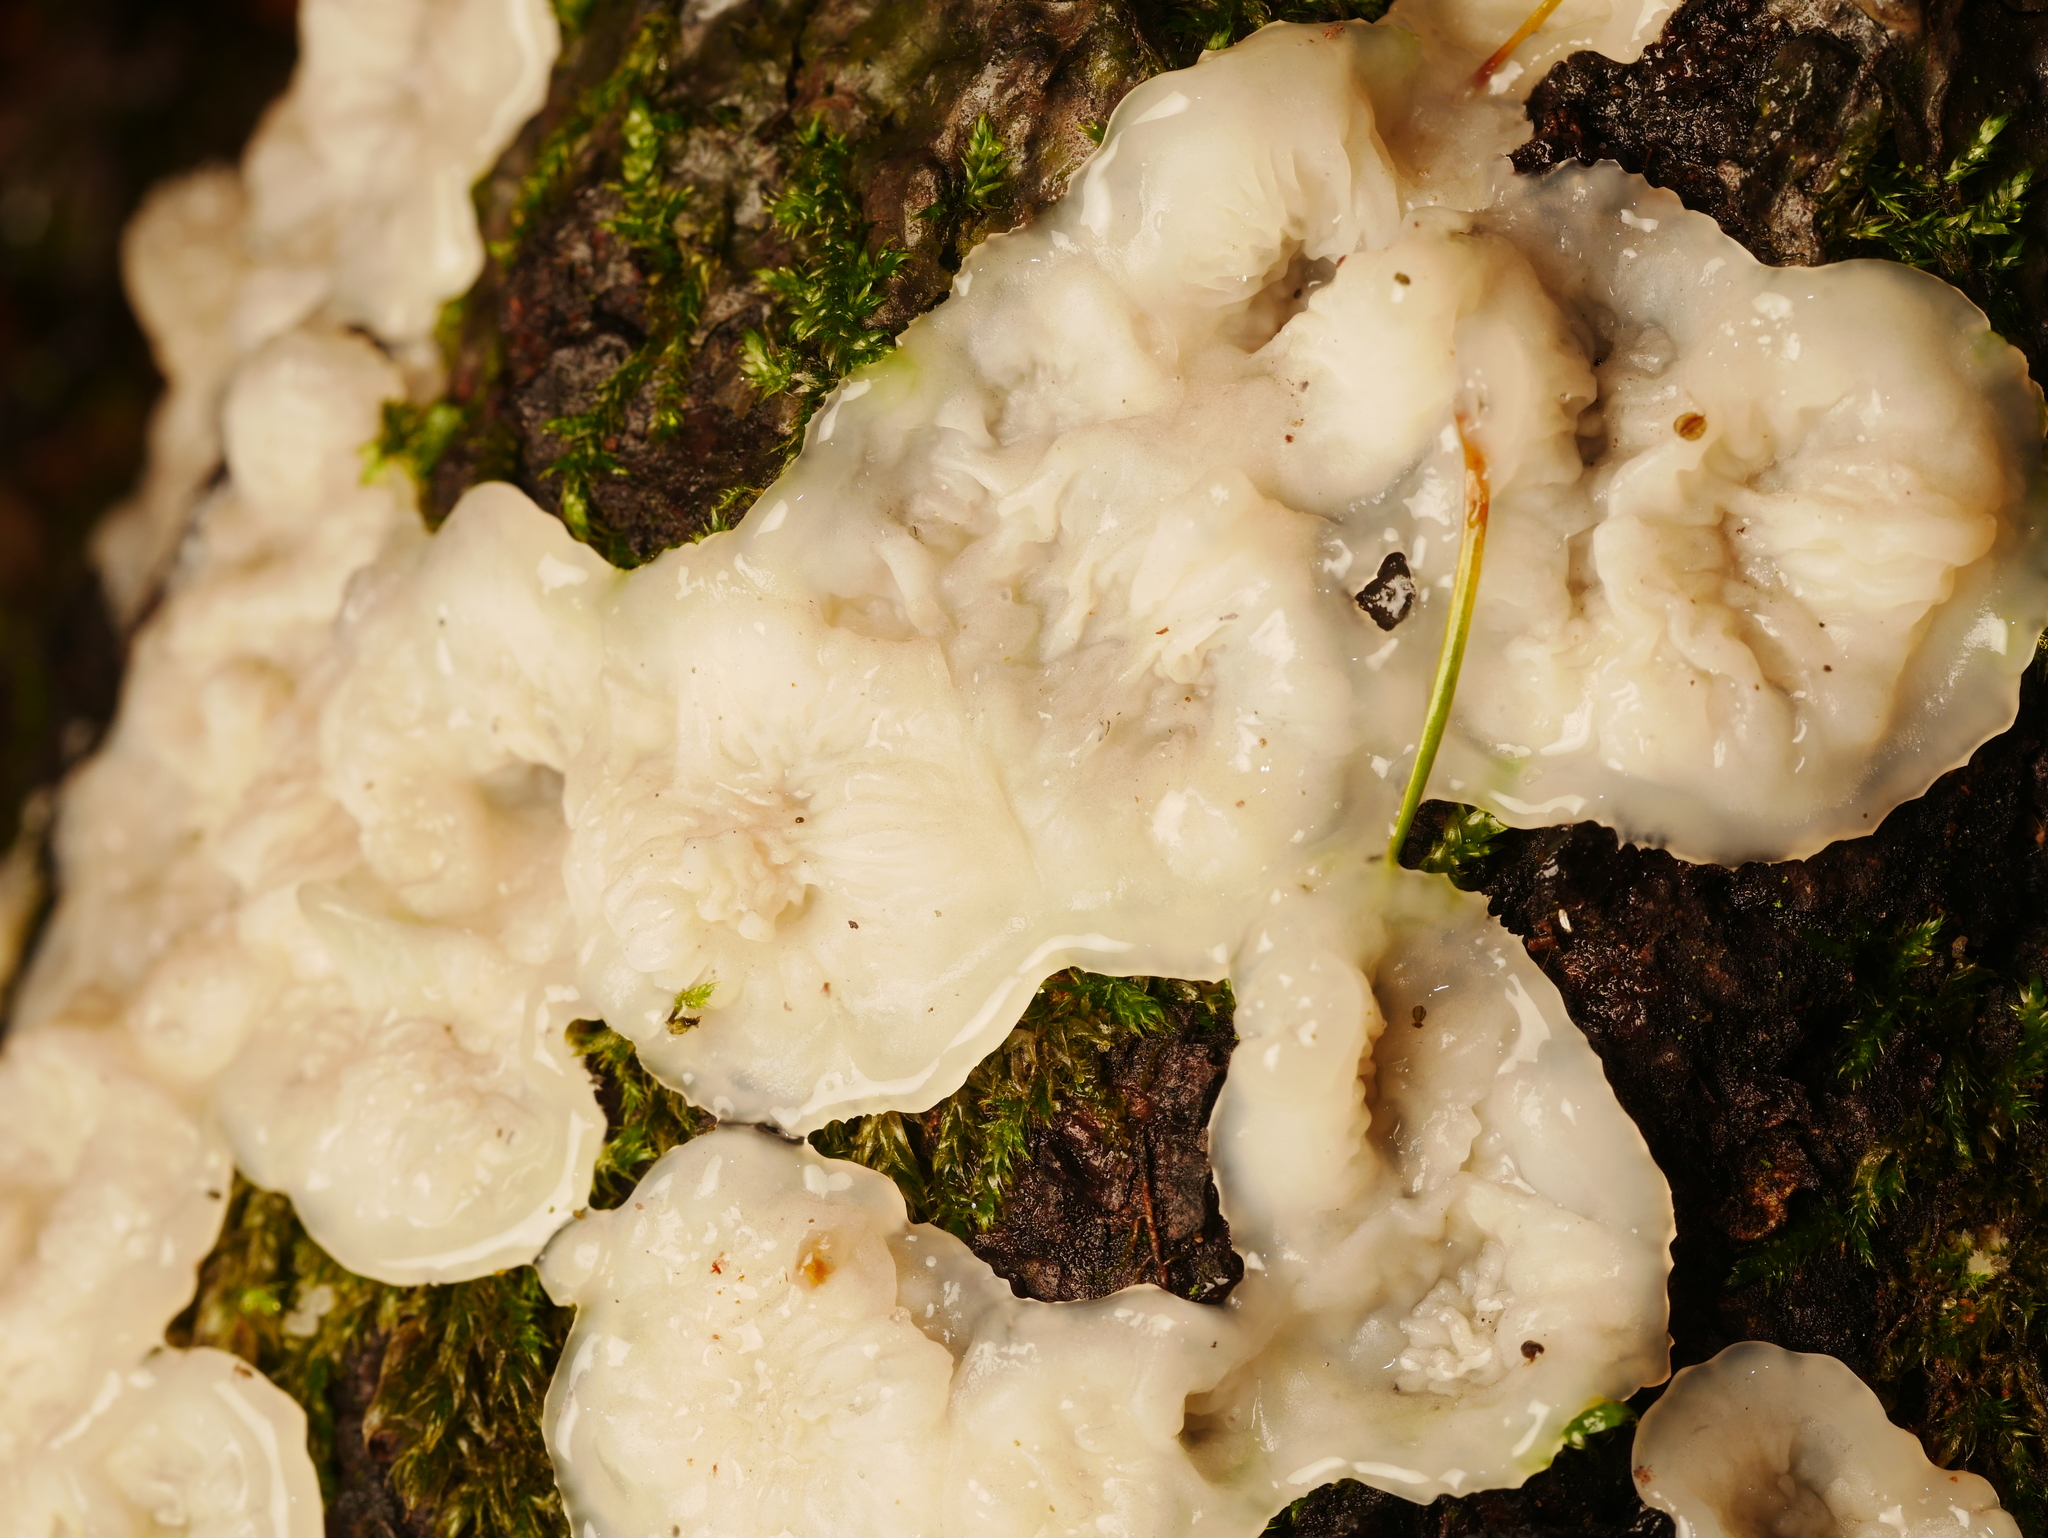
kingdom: Fungi
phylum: Basidiomycota
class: Agaricomycetes
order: Polyporales
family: Meruliaceae
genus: Phlebia
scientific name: Phlebia tremellosa
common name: Jelly rot
